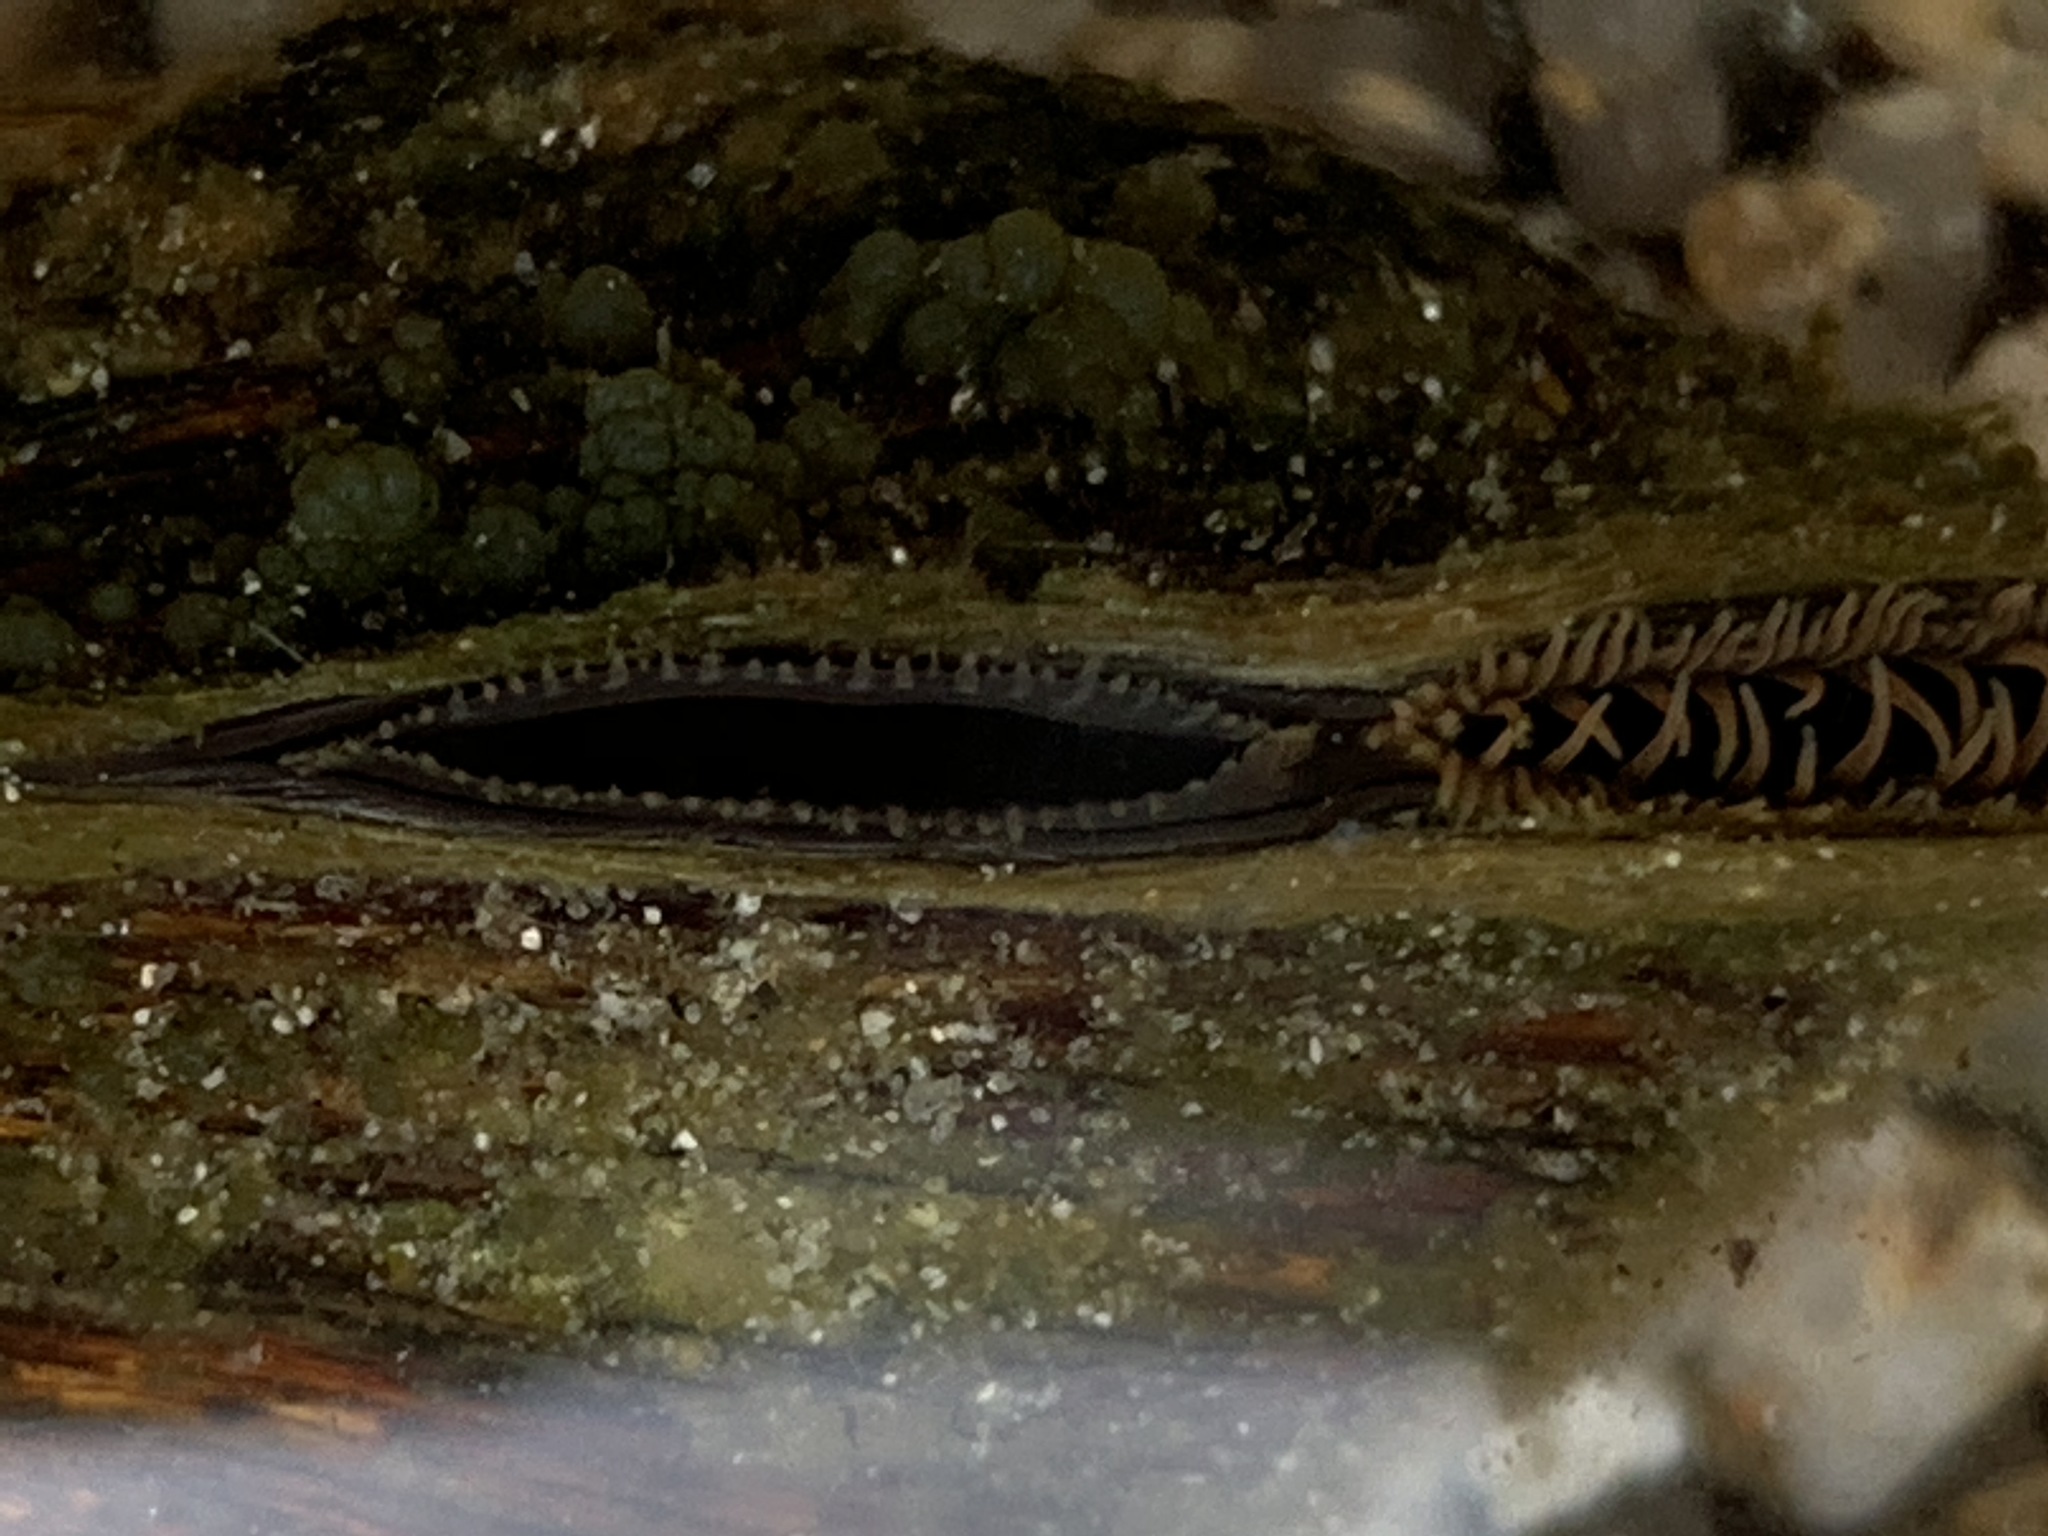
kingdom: Animalia
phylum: Mollusca
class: Bivalvia
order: Unionida
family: Unionidae
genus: Elliptio
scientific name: Elliptio complanata
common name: Eastern elliptio
